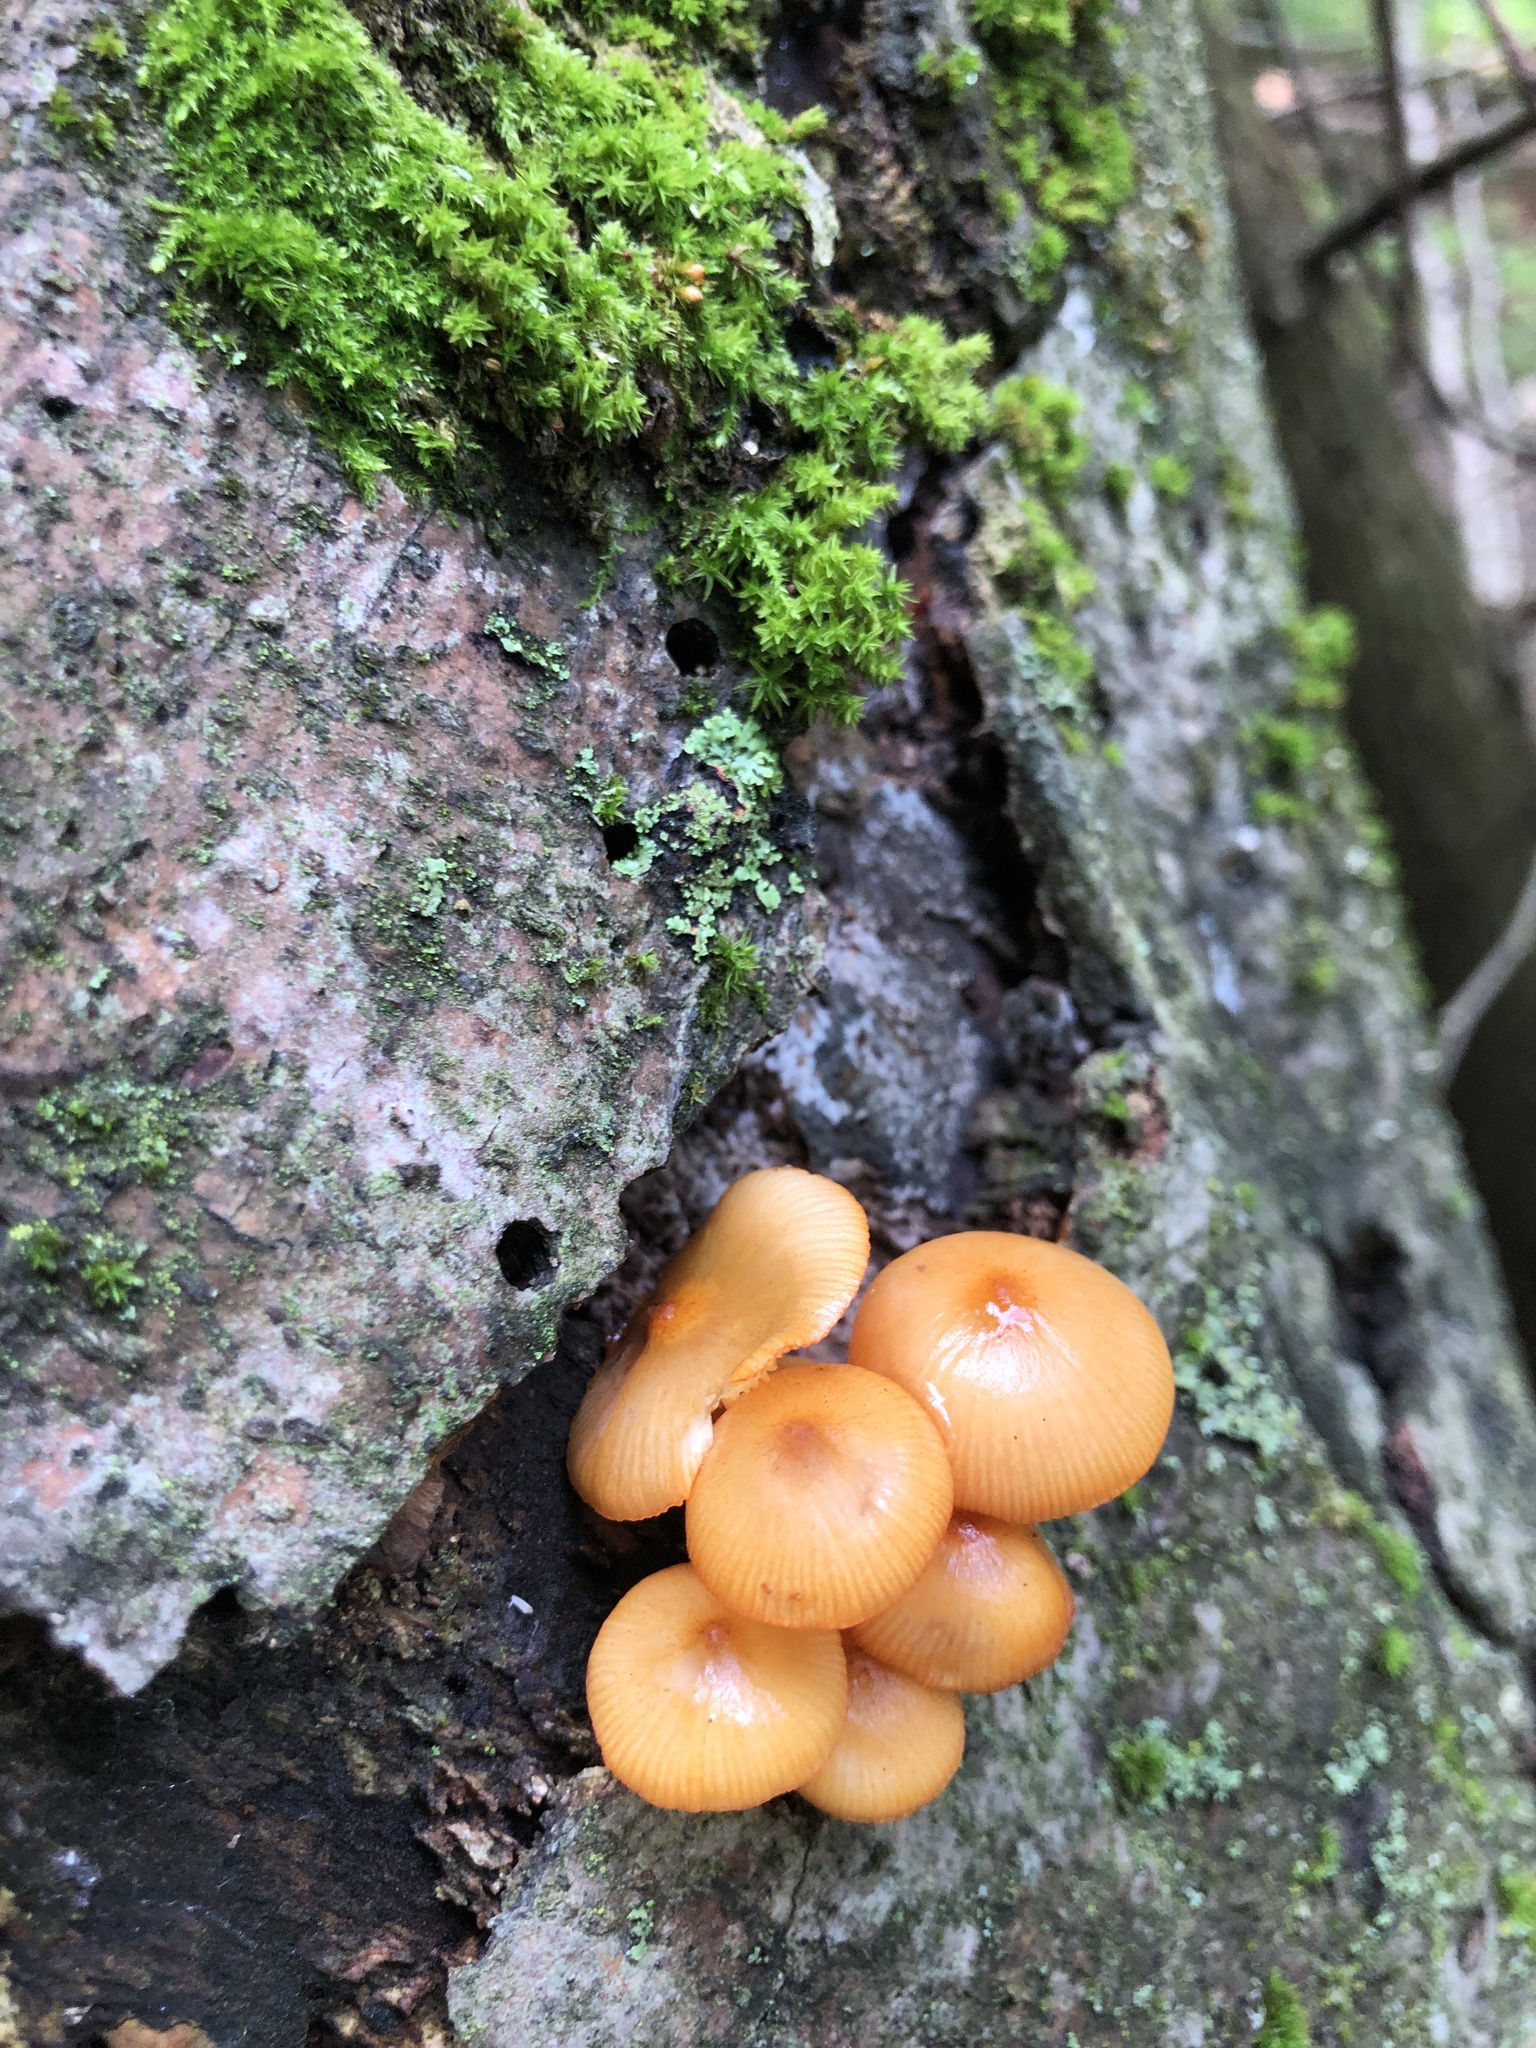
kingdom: Fungi
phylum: Basidiomycota
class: Agaricomycetes
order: Agaricales
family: Mycenaceae
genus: Mycena
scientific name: Mycena leaiana
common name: Orange mycena
